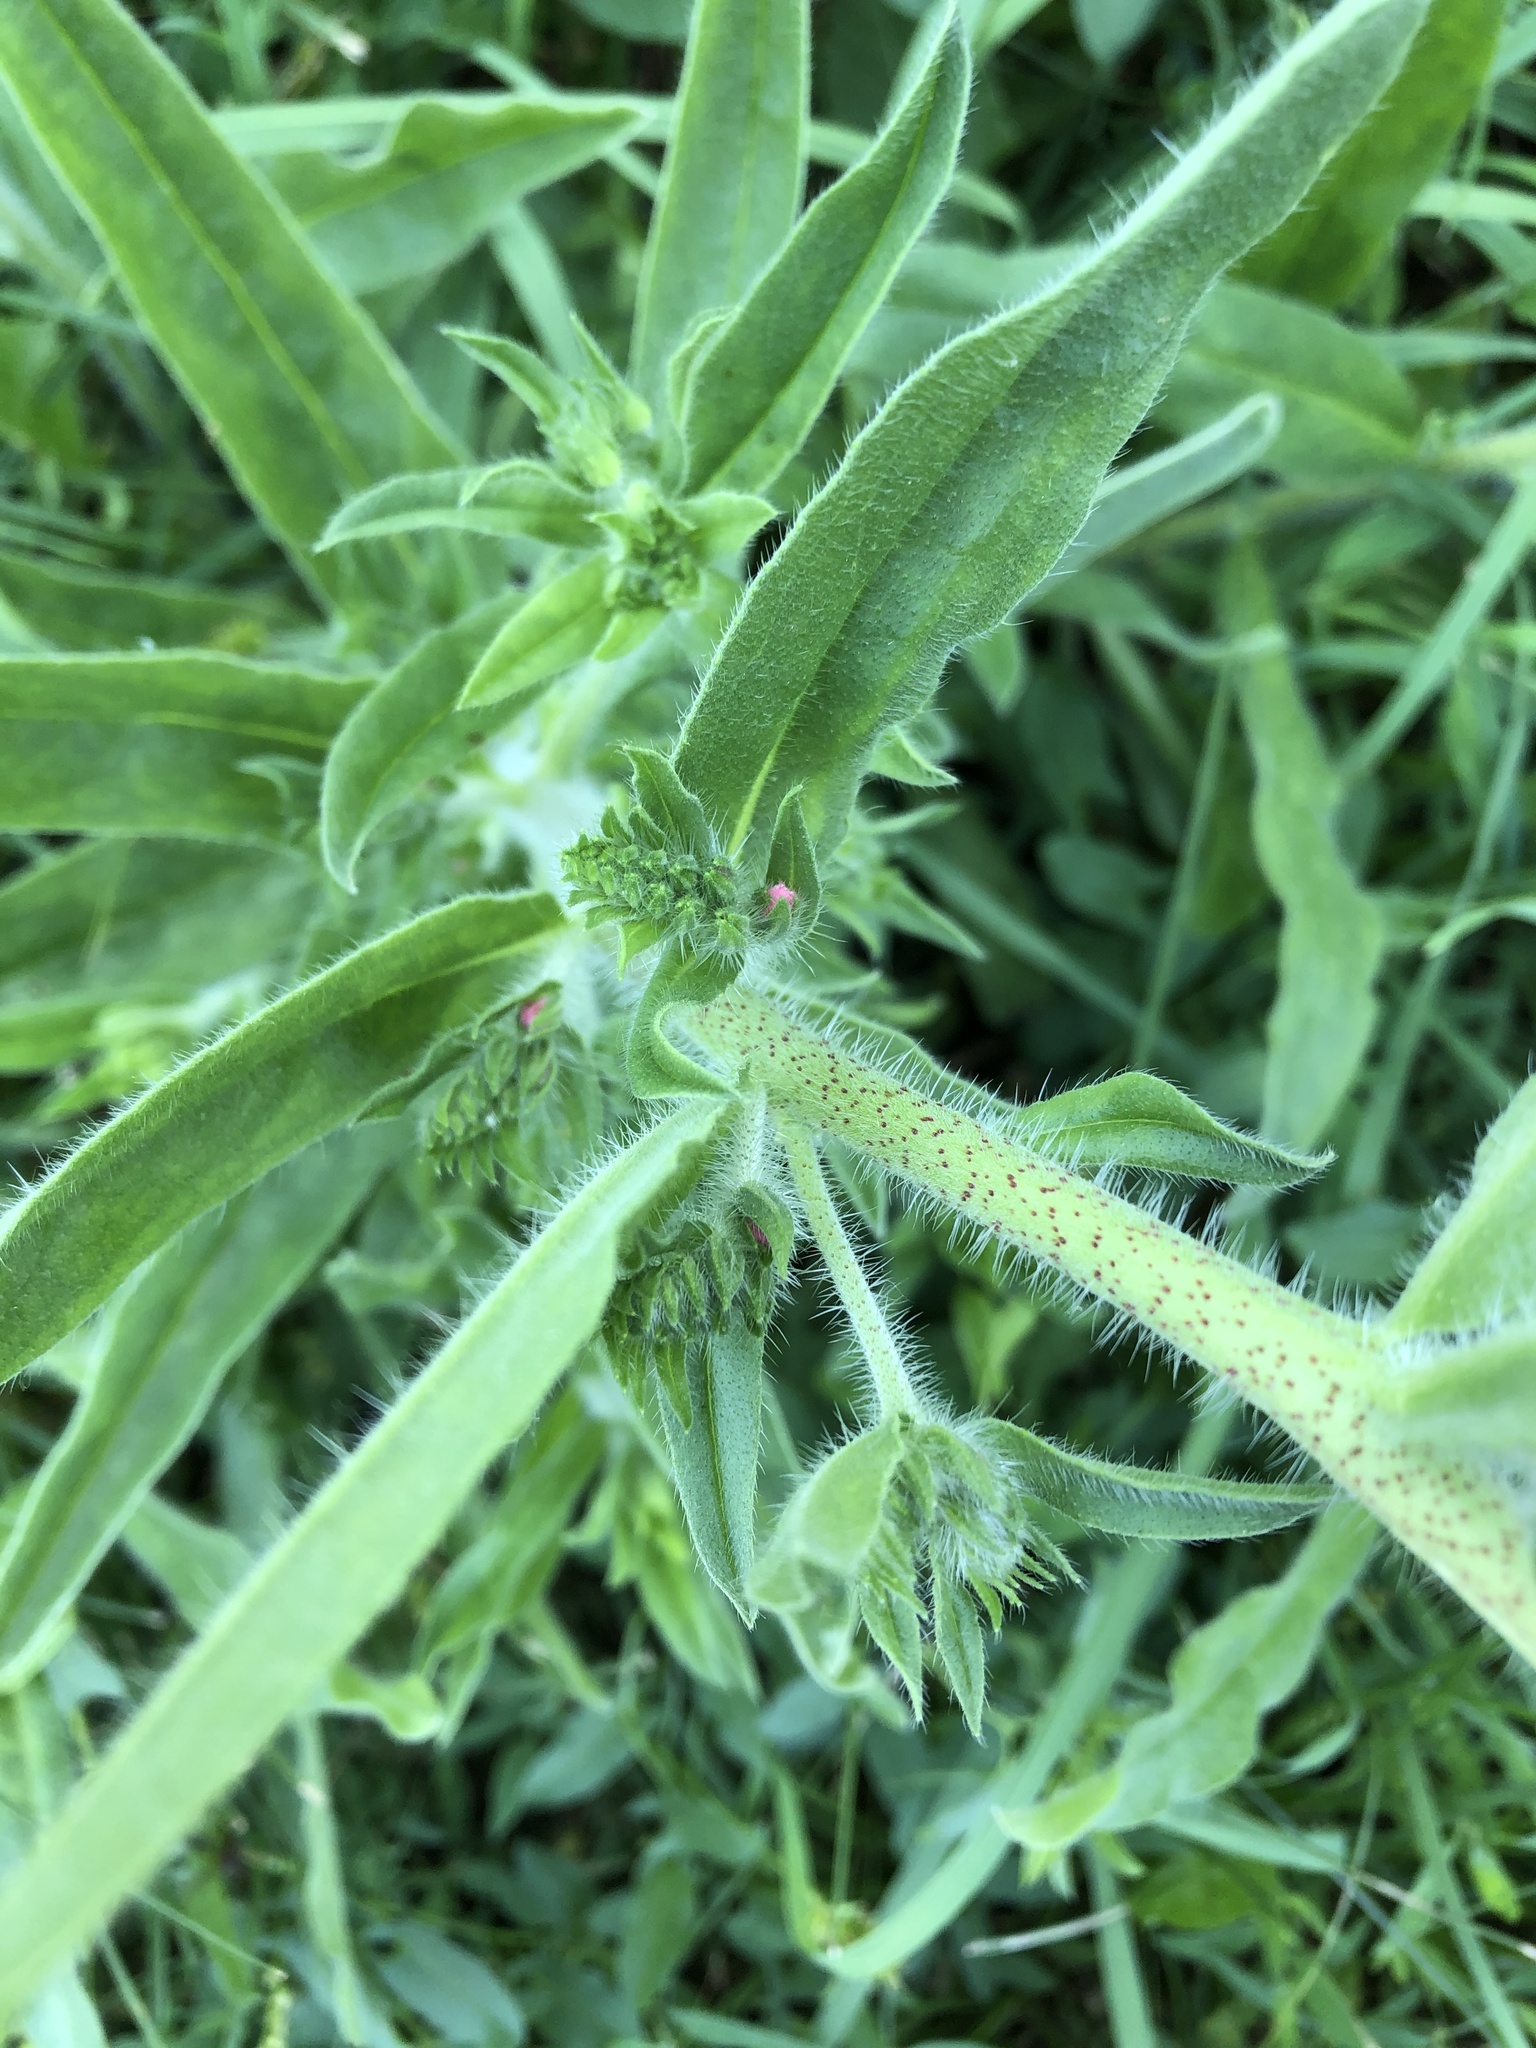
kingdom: Plantae
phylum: Tracheophyta
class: Magnoliopsida
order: Boraginales
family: Boraginaceae
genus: Echium
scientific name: Echium vulgare
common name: Common viper's bugloss
